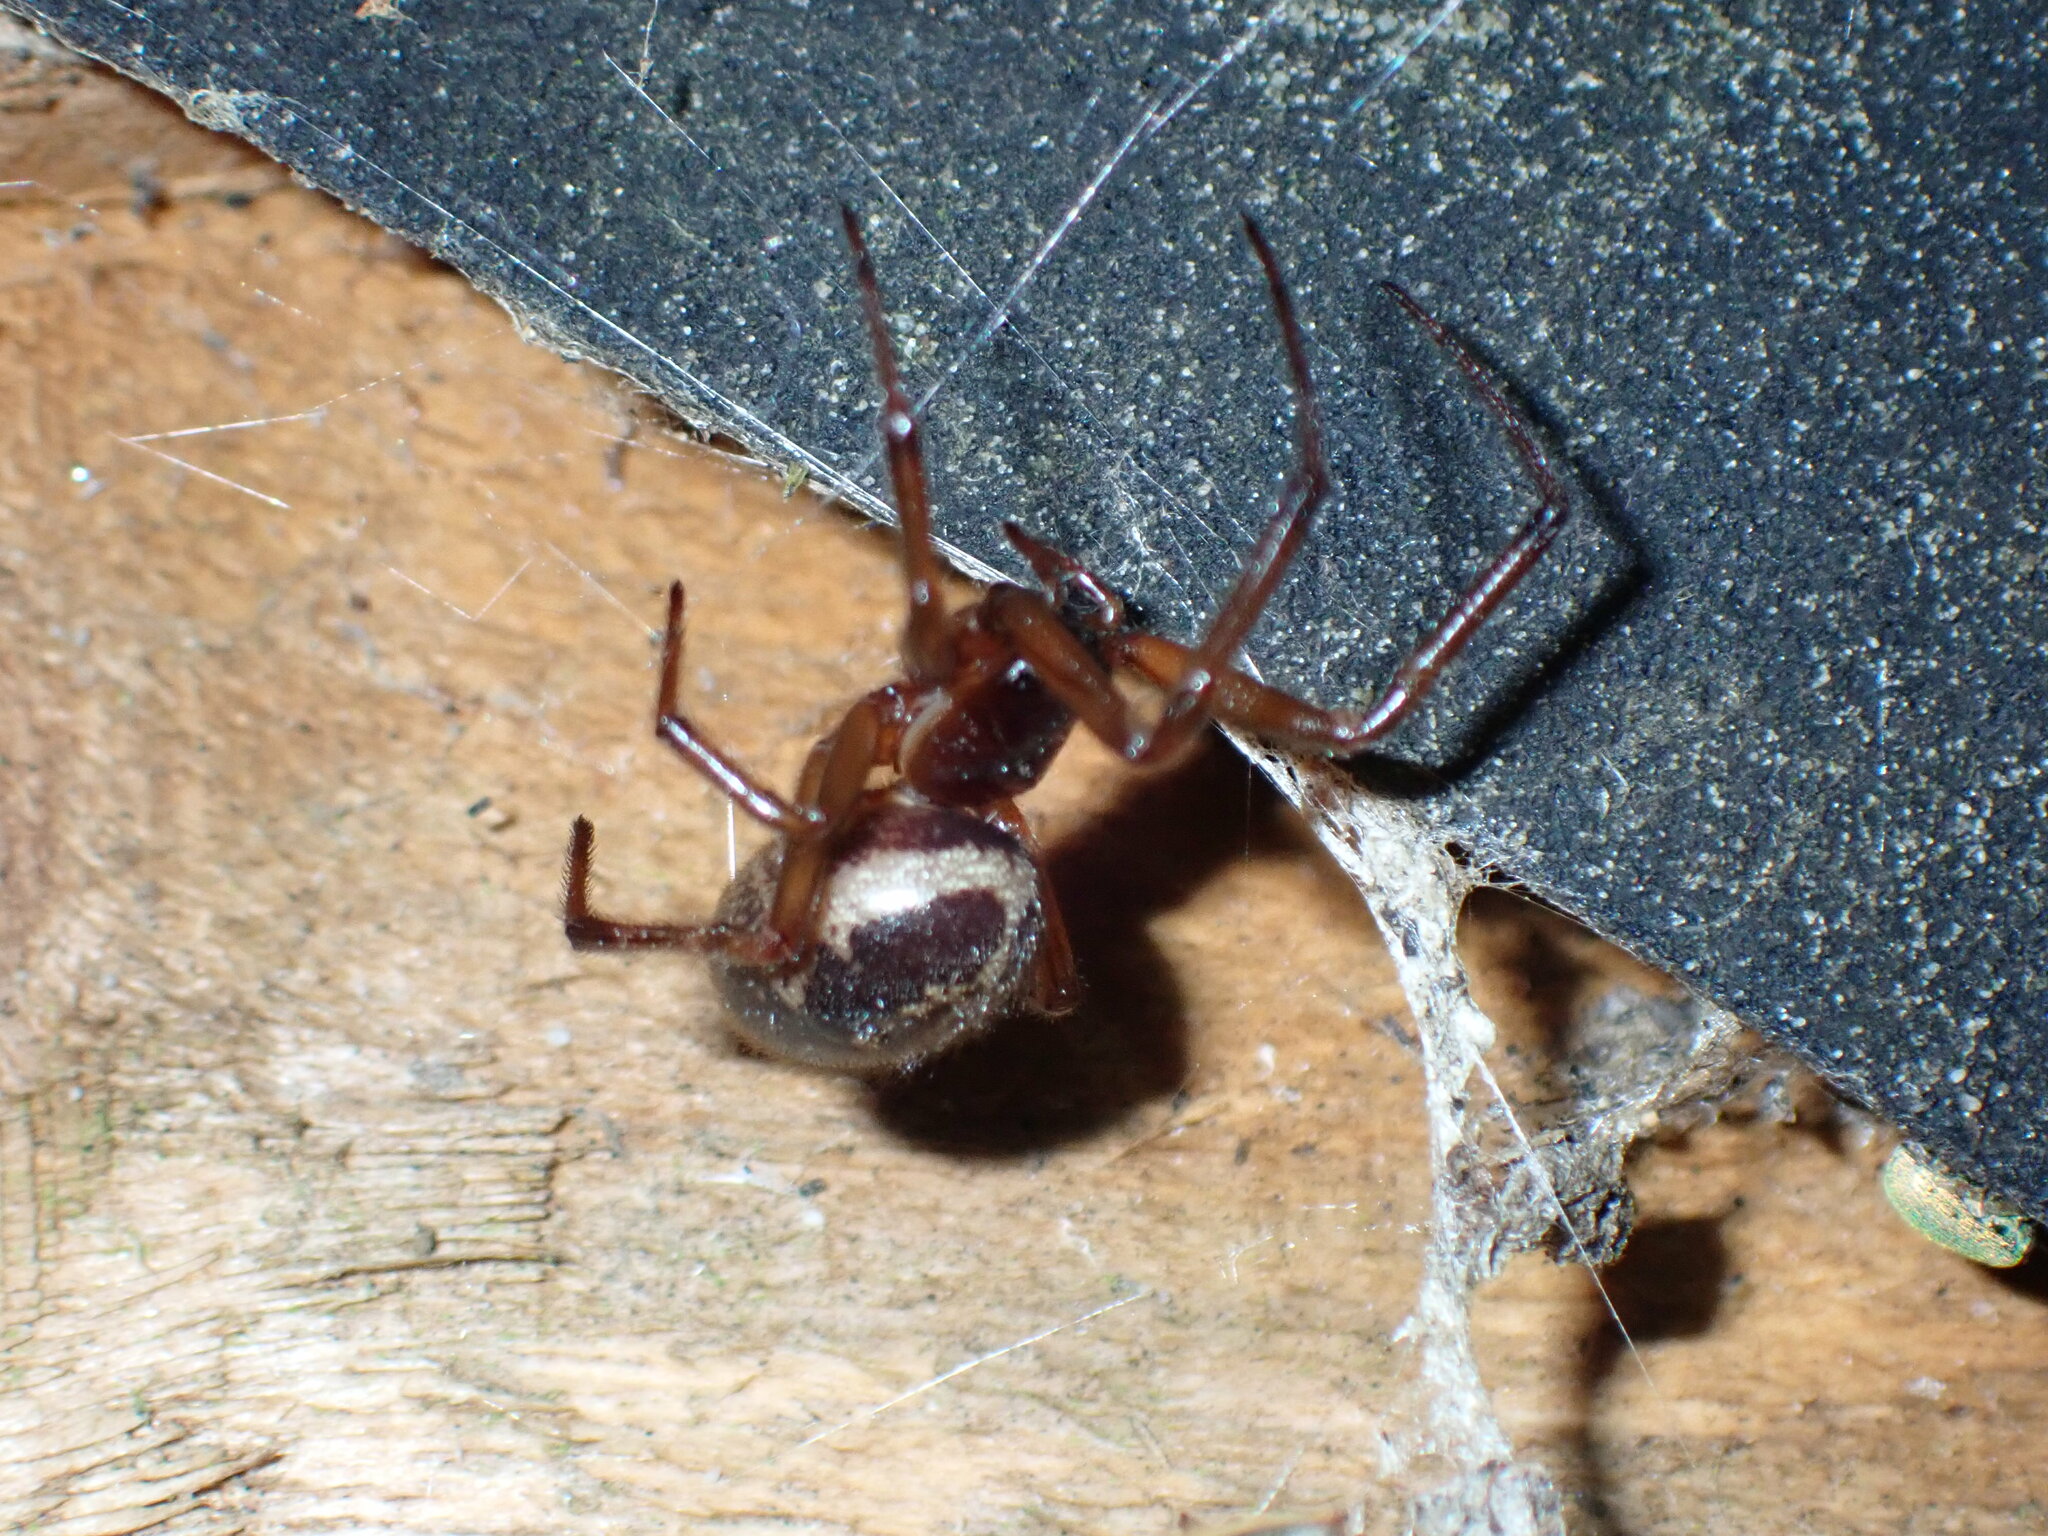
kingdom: Animalia
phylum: Arthropoda
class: Arachnida
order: Araneae
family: Theridiidae
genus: Steatoda
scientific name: Steatoda nobilis
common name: Cobweb weaver
